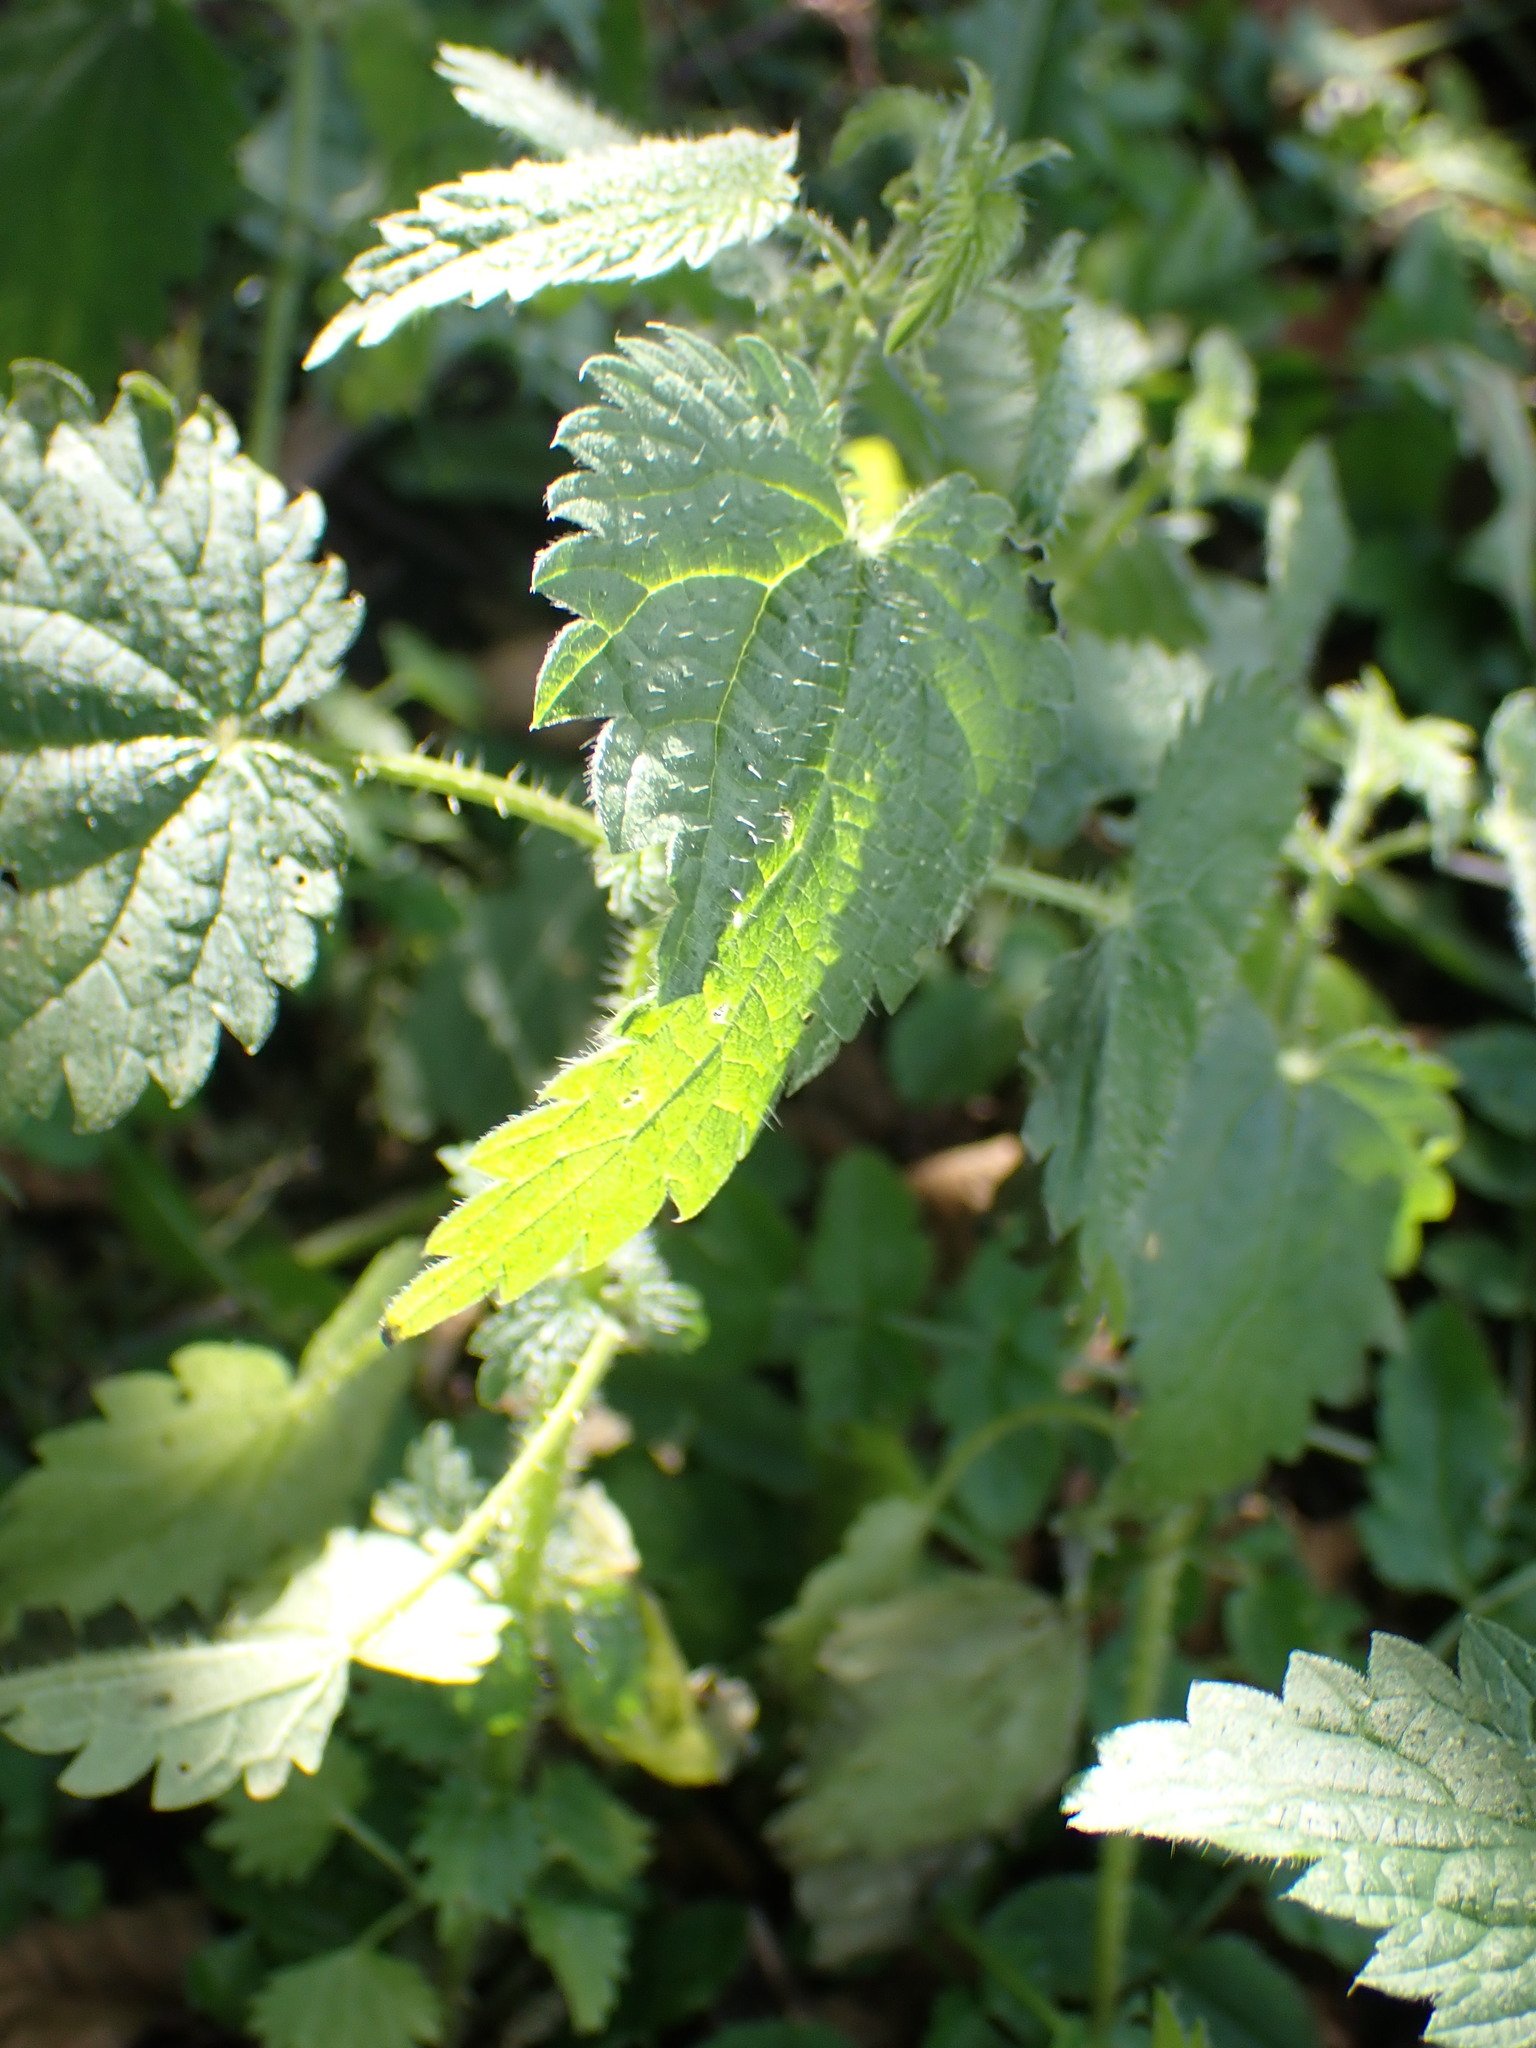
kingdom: Plantae
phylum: Tracheophyta
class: Magnoliopsida
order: Rosales
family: Urticaceae
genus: Urtica
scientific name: Urtica dioica
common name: Common nettle
